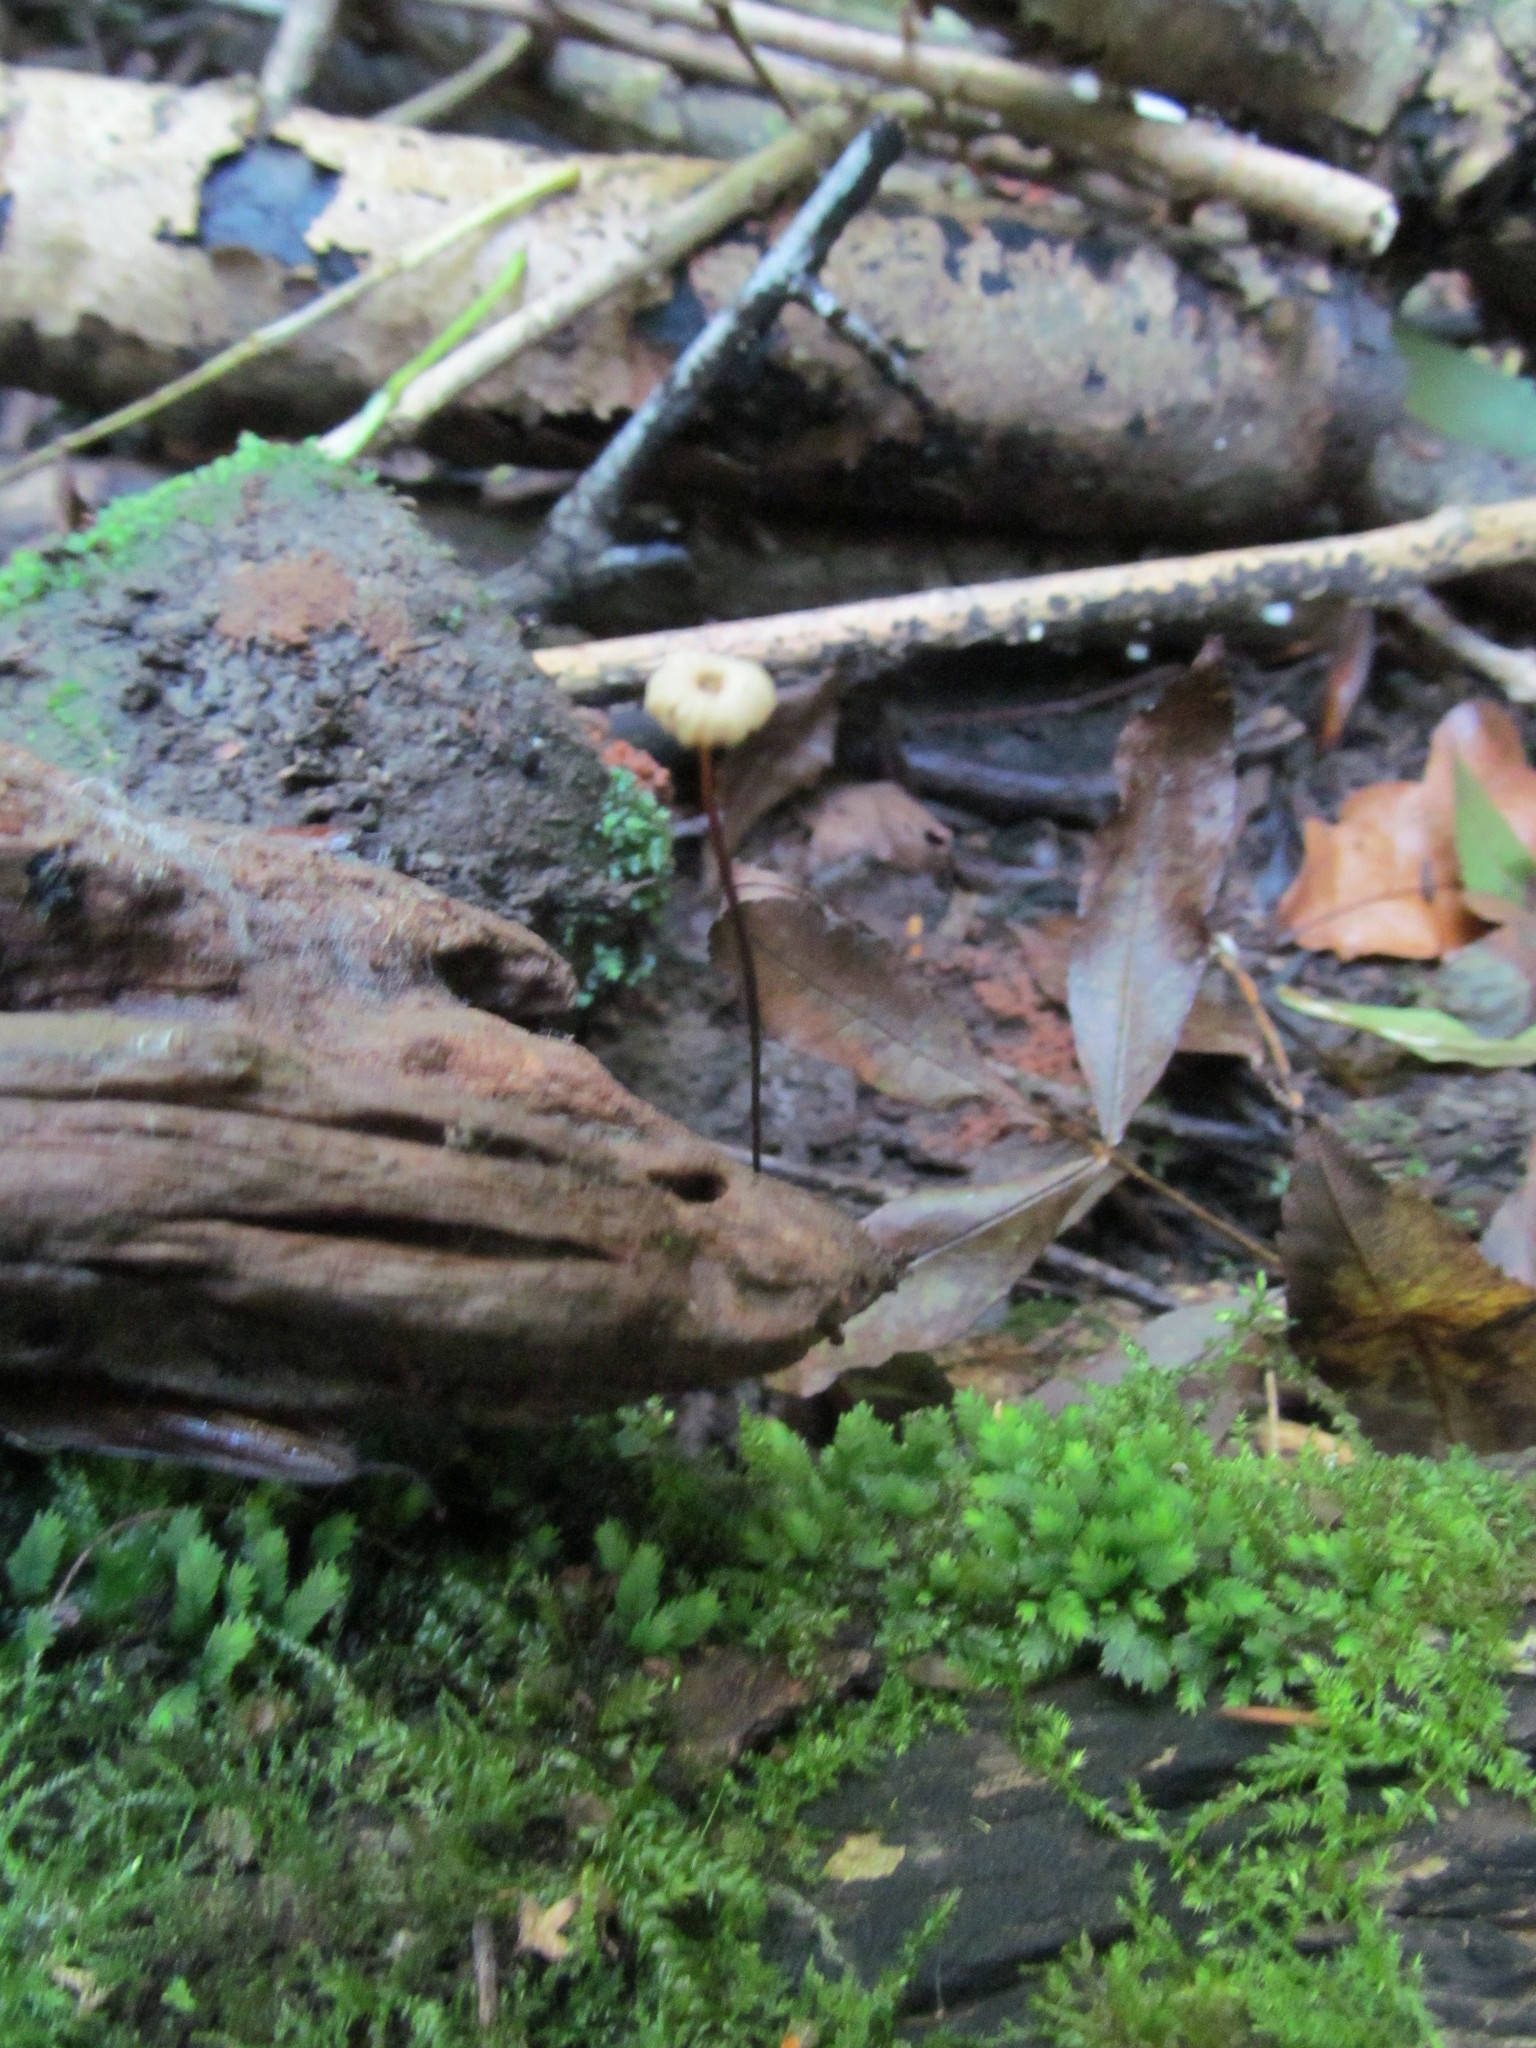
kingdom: Fungi
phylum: Basidiomycota
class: Agaricomycetes
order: Agaricales
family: Marasmiaceae
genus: Marasmius
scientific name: Marasmius rotula
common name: Collared parachute
